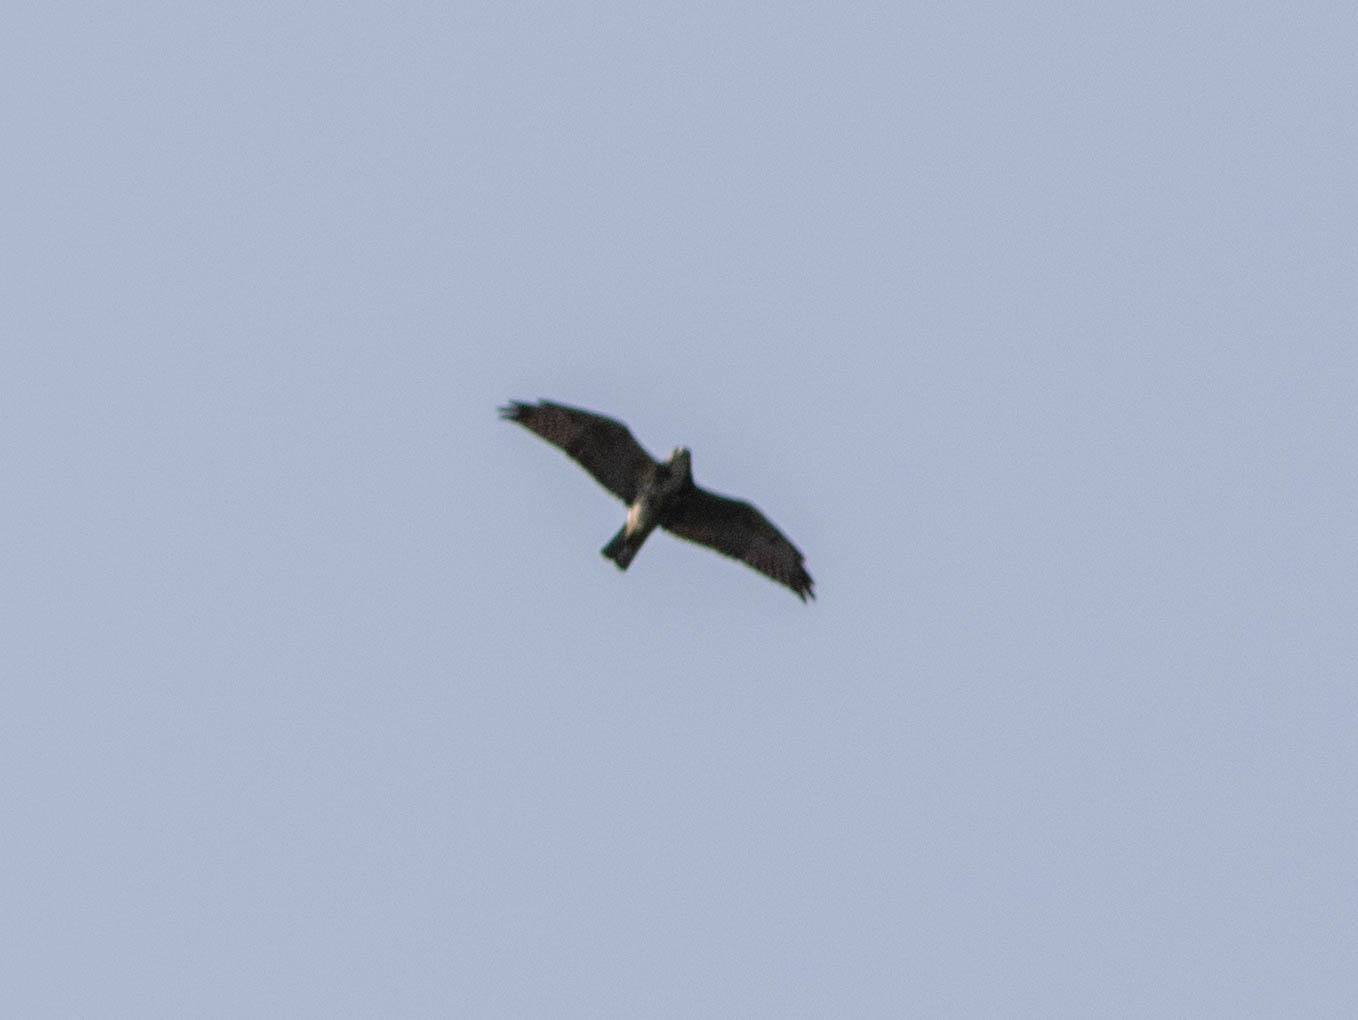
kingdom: Animalia
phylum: Chordata
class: Aves
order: Accipitriformes
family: Pandionidae
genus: Pandion
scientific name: Pandion haliaetus
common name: Osprey
